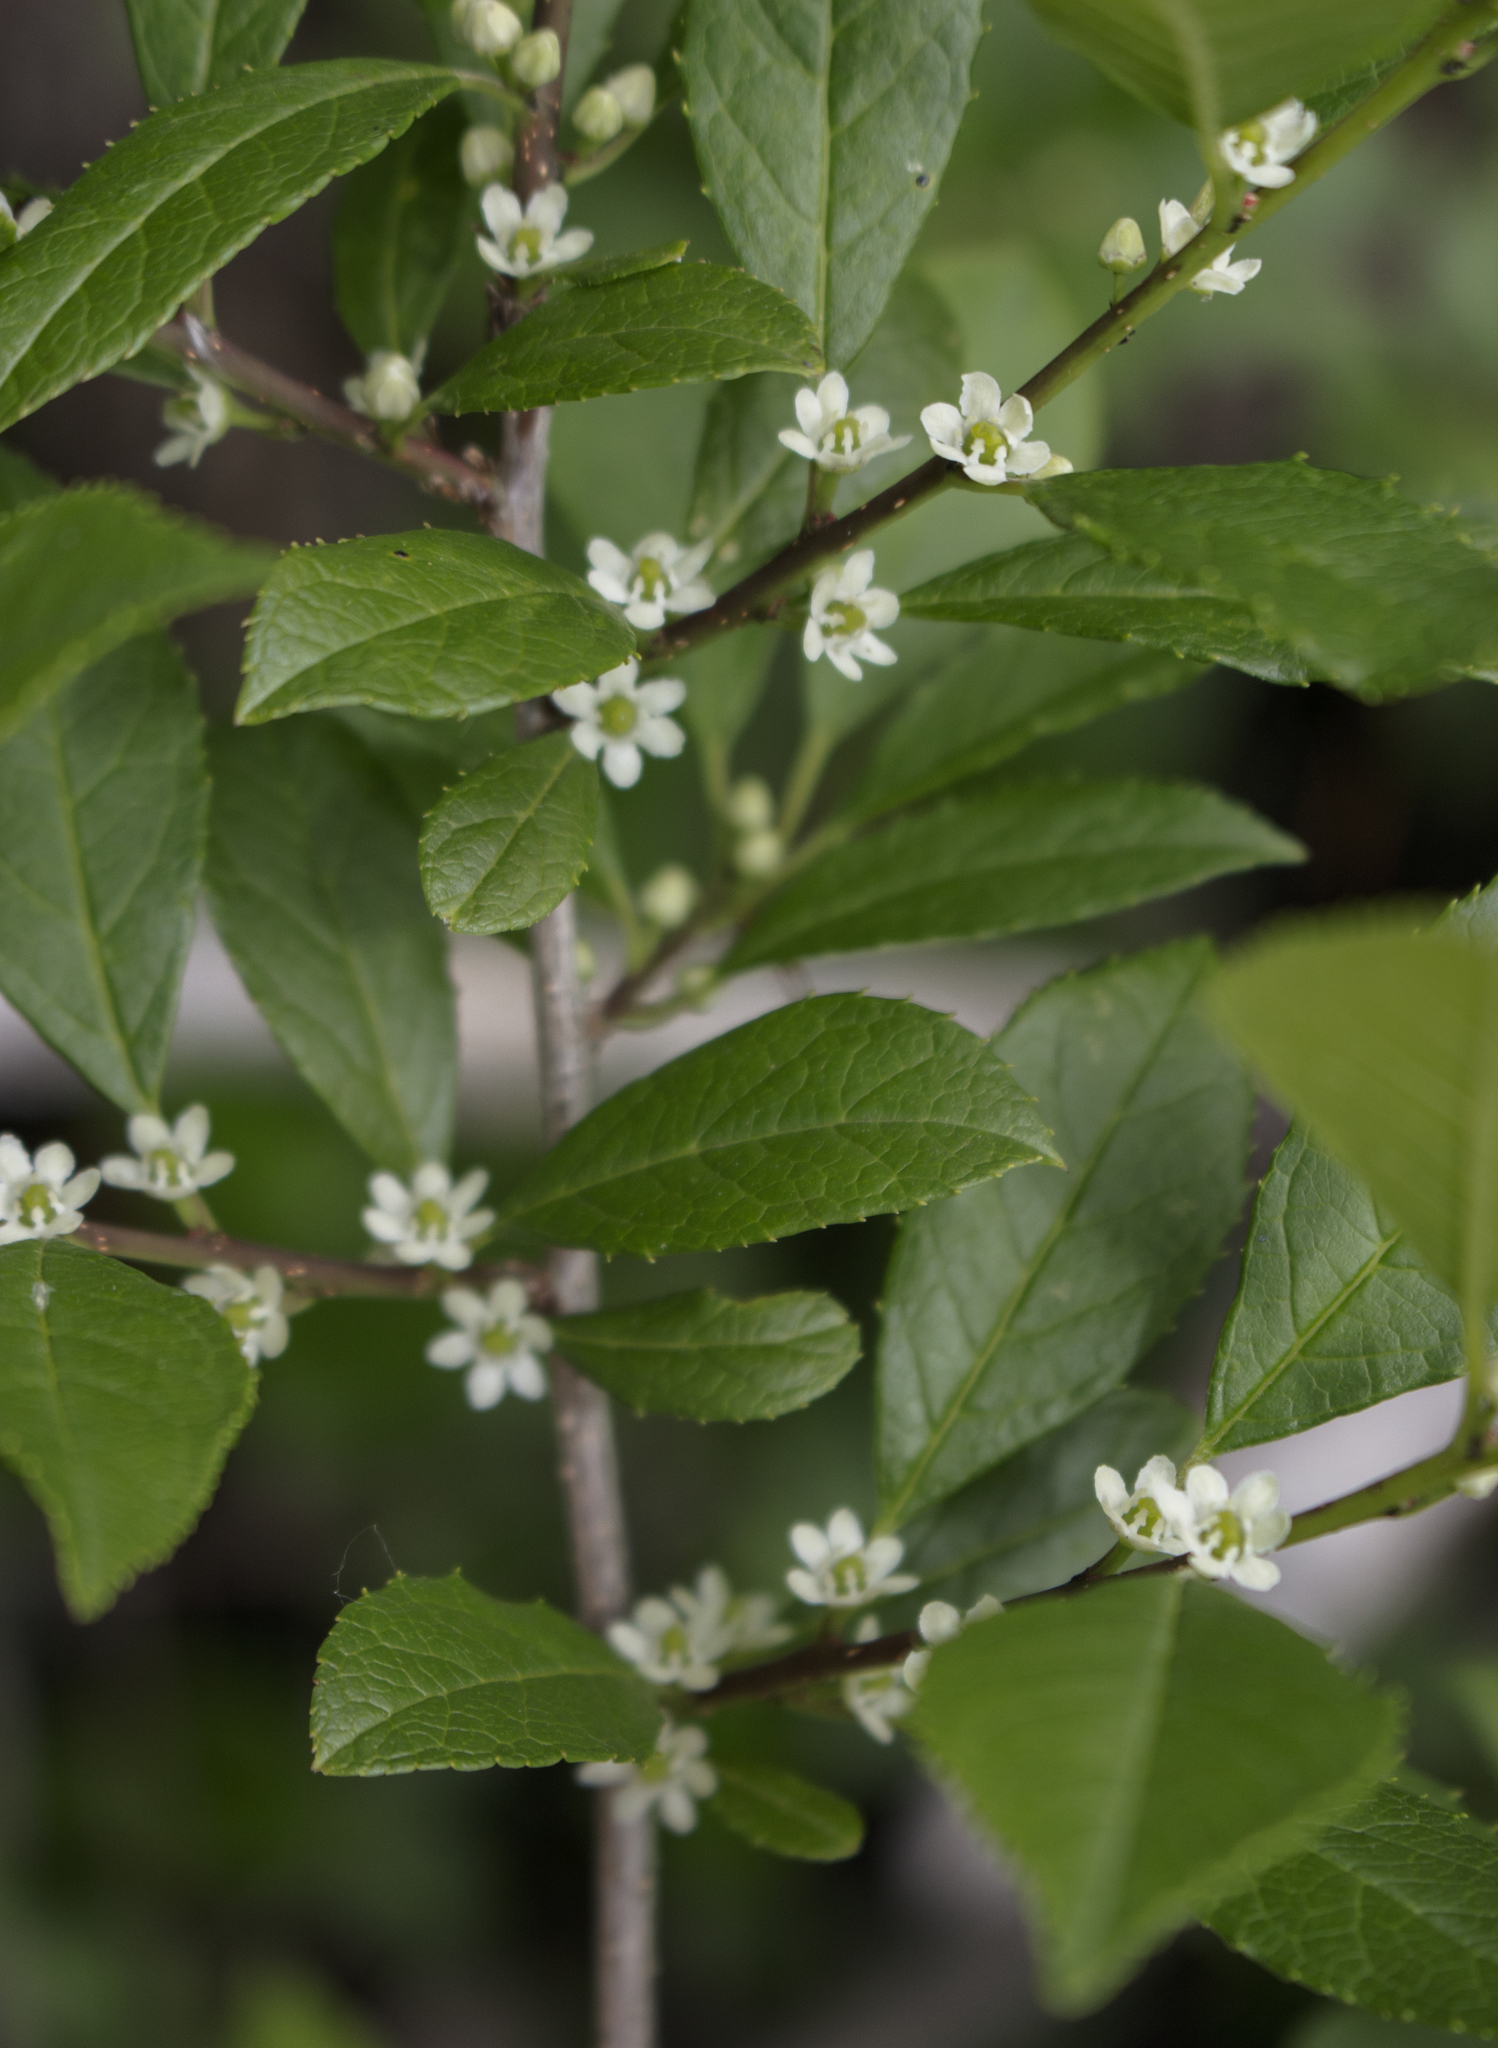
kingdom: Plantae
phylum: Tracheophyta
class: Magnoliopsida
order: Aquifoliales
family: Aquifoliaceae
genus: Ilex
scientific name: Ilex verticillata
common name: Virginia winterberry
